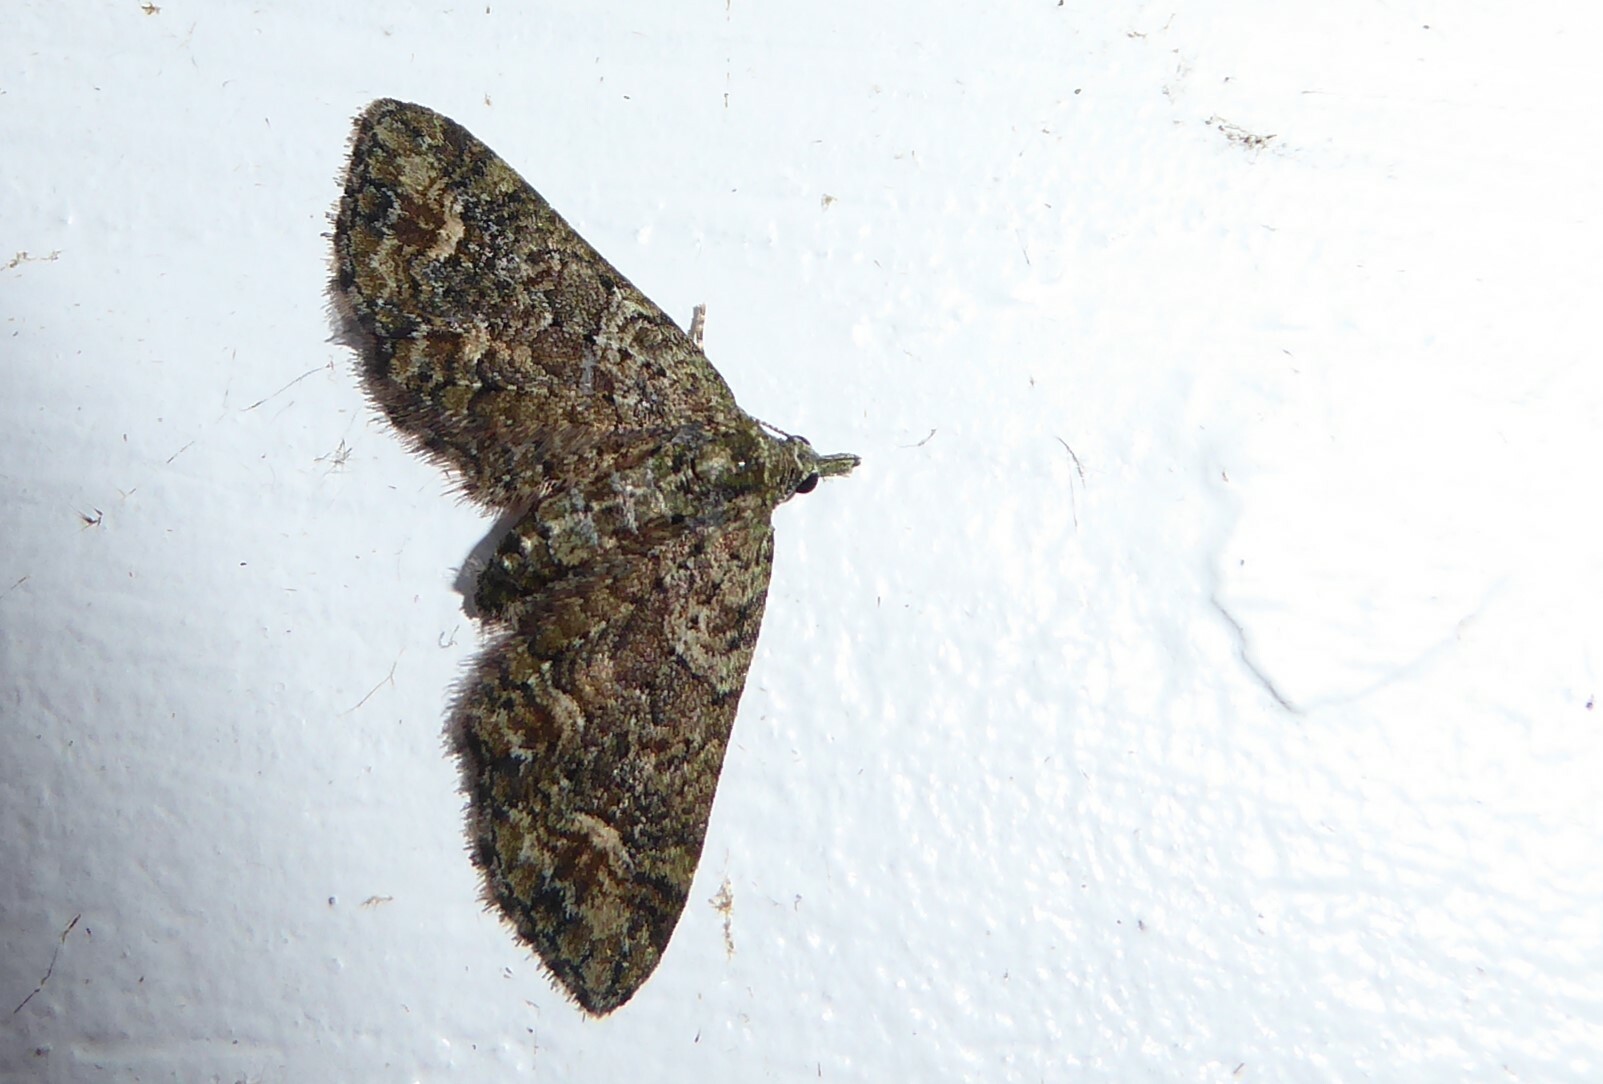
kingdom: Animalia
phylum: Arthropoda
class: Insecta
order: Lepidoptera
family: Geometridae
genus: Idaea
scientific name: Idaea mutanda
